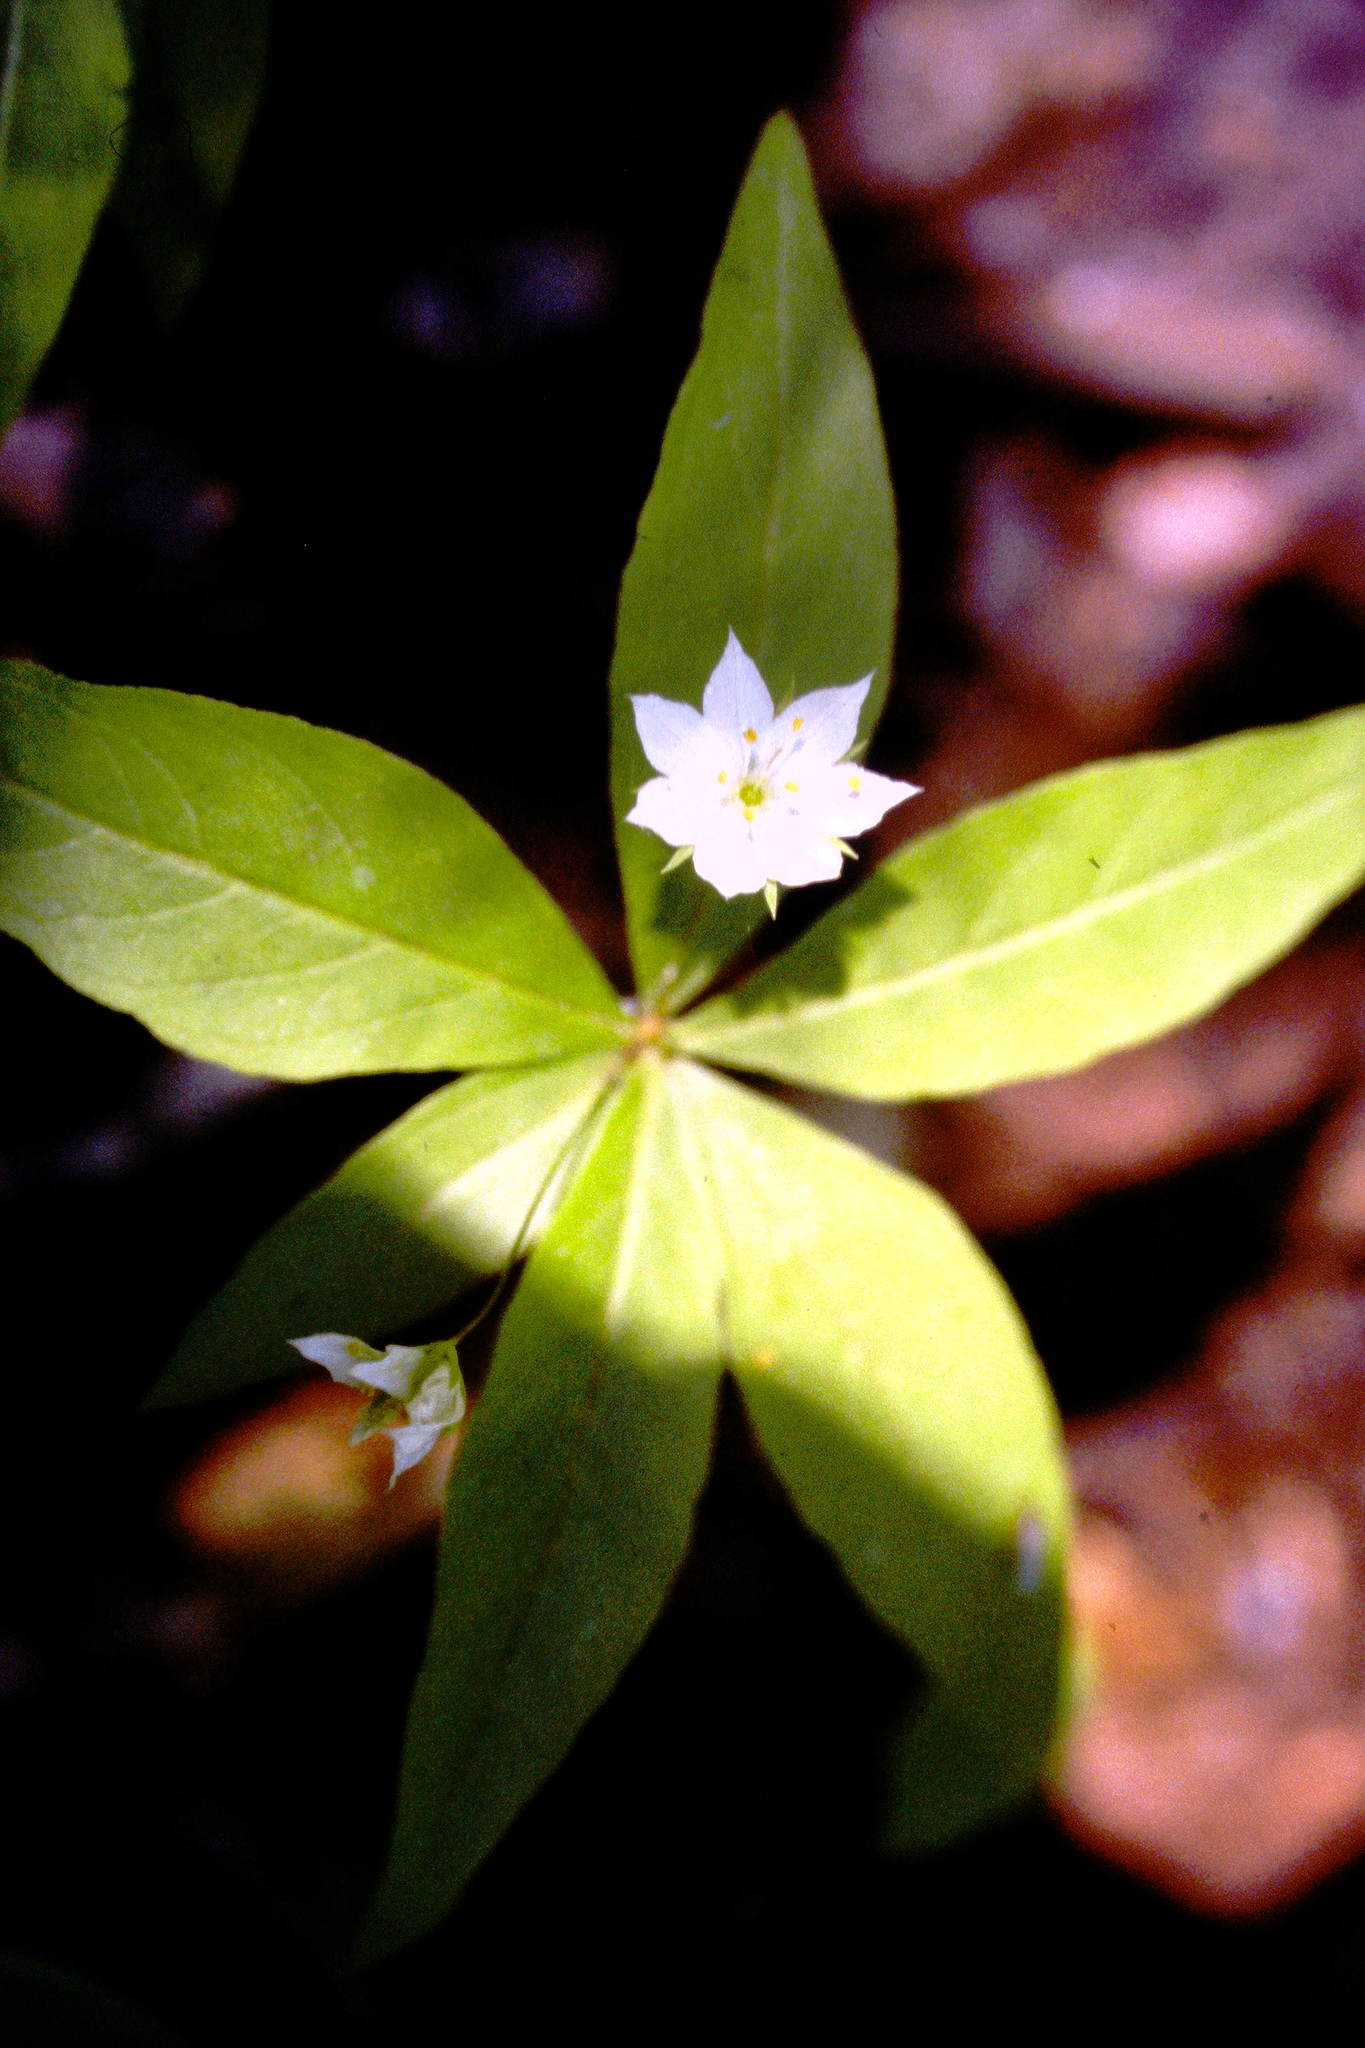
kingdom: Plantae
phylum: Tracheophyta
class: Magnoliopsida
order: Ericales
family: Primulaceae
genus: Lysimachia
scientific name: Lysimachia borealis
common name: American starflower
